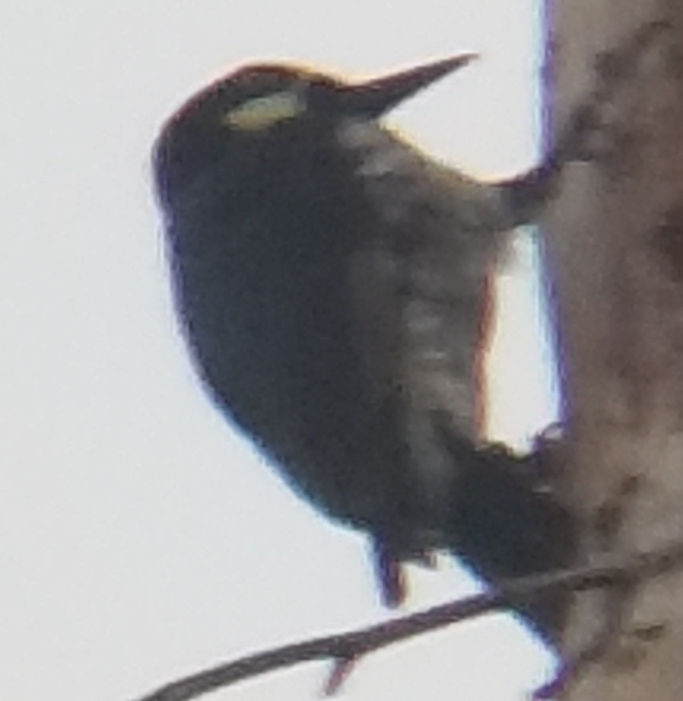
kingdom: Animalia
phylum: Chordata
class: Aves
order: Piciformes
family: Picidae
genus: Melanerpes
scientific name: Melanerpes formicivorus
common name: Acorn woodpecker
